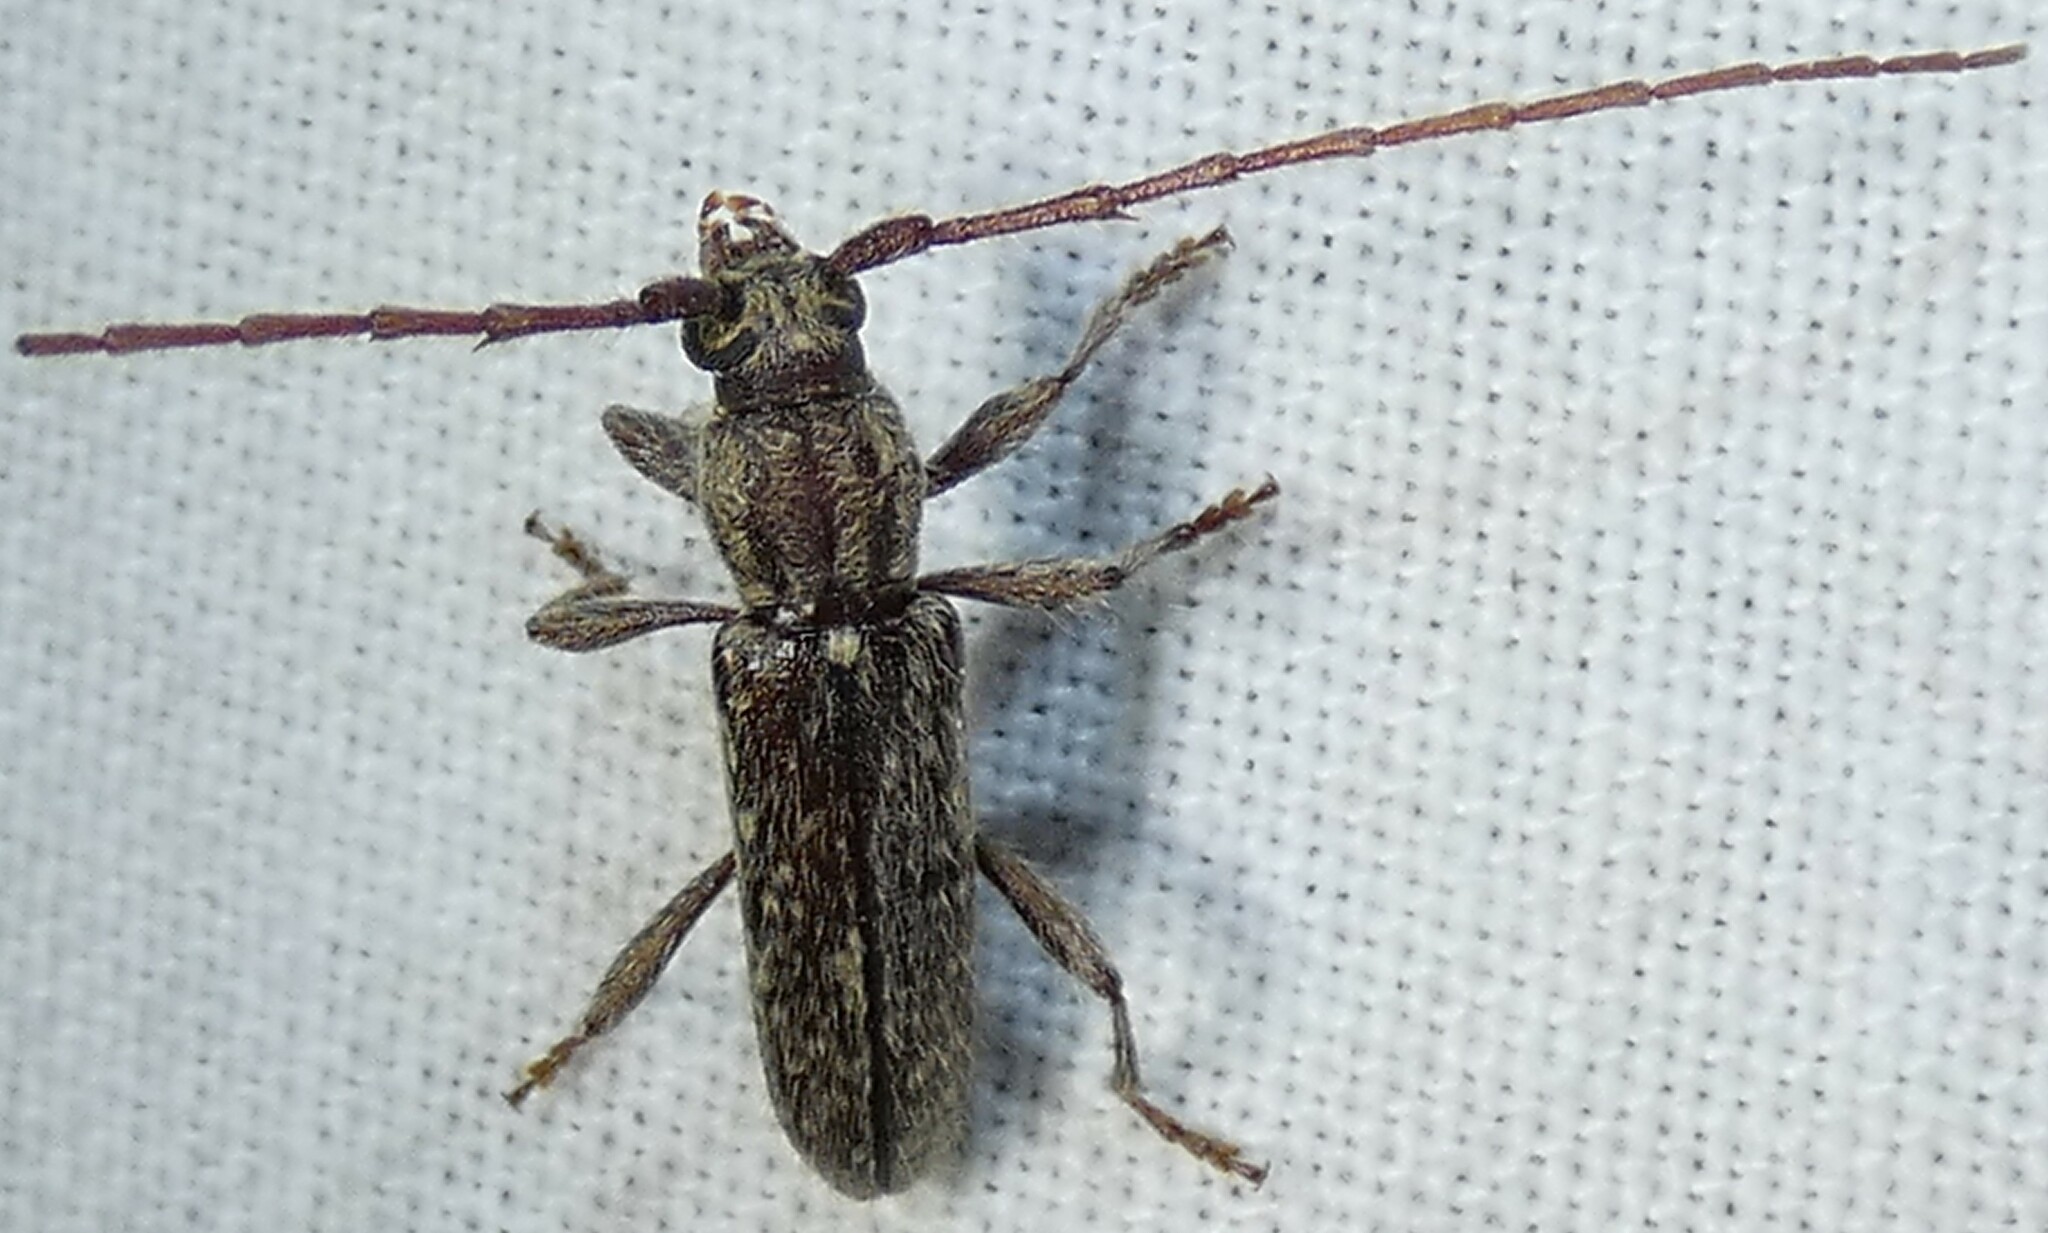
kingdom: Animalia
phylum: Arthropoda
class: Insecta
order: Coleoptera
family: Cerambycidae
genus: Anelaphus
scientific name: Anelaphus pumilus
